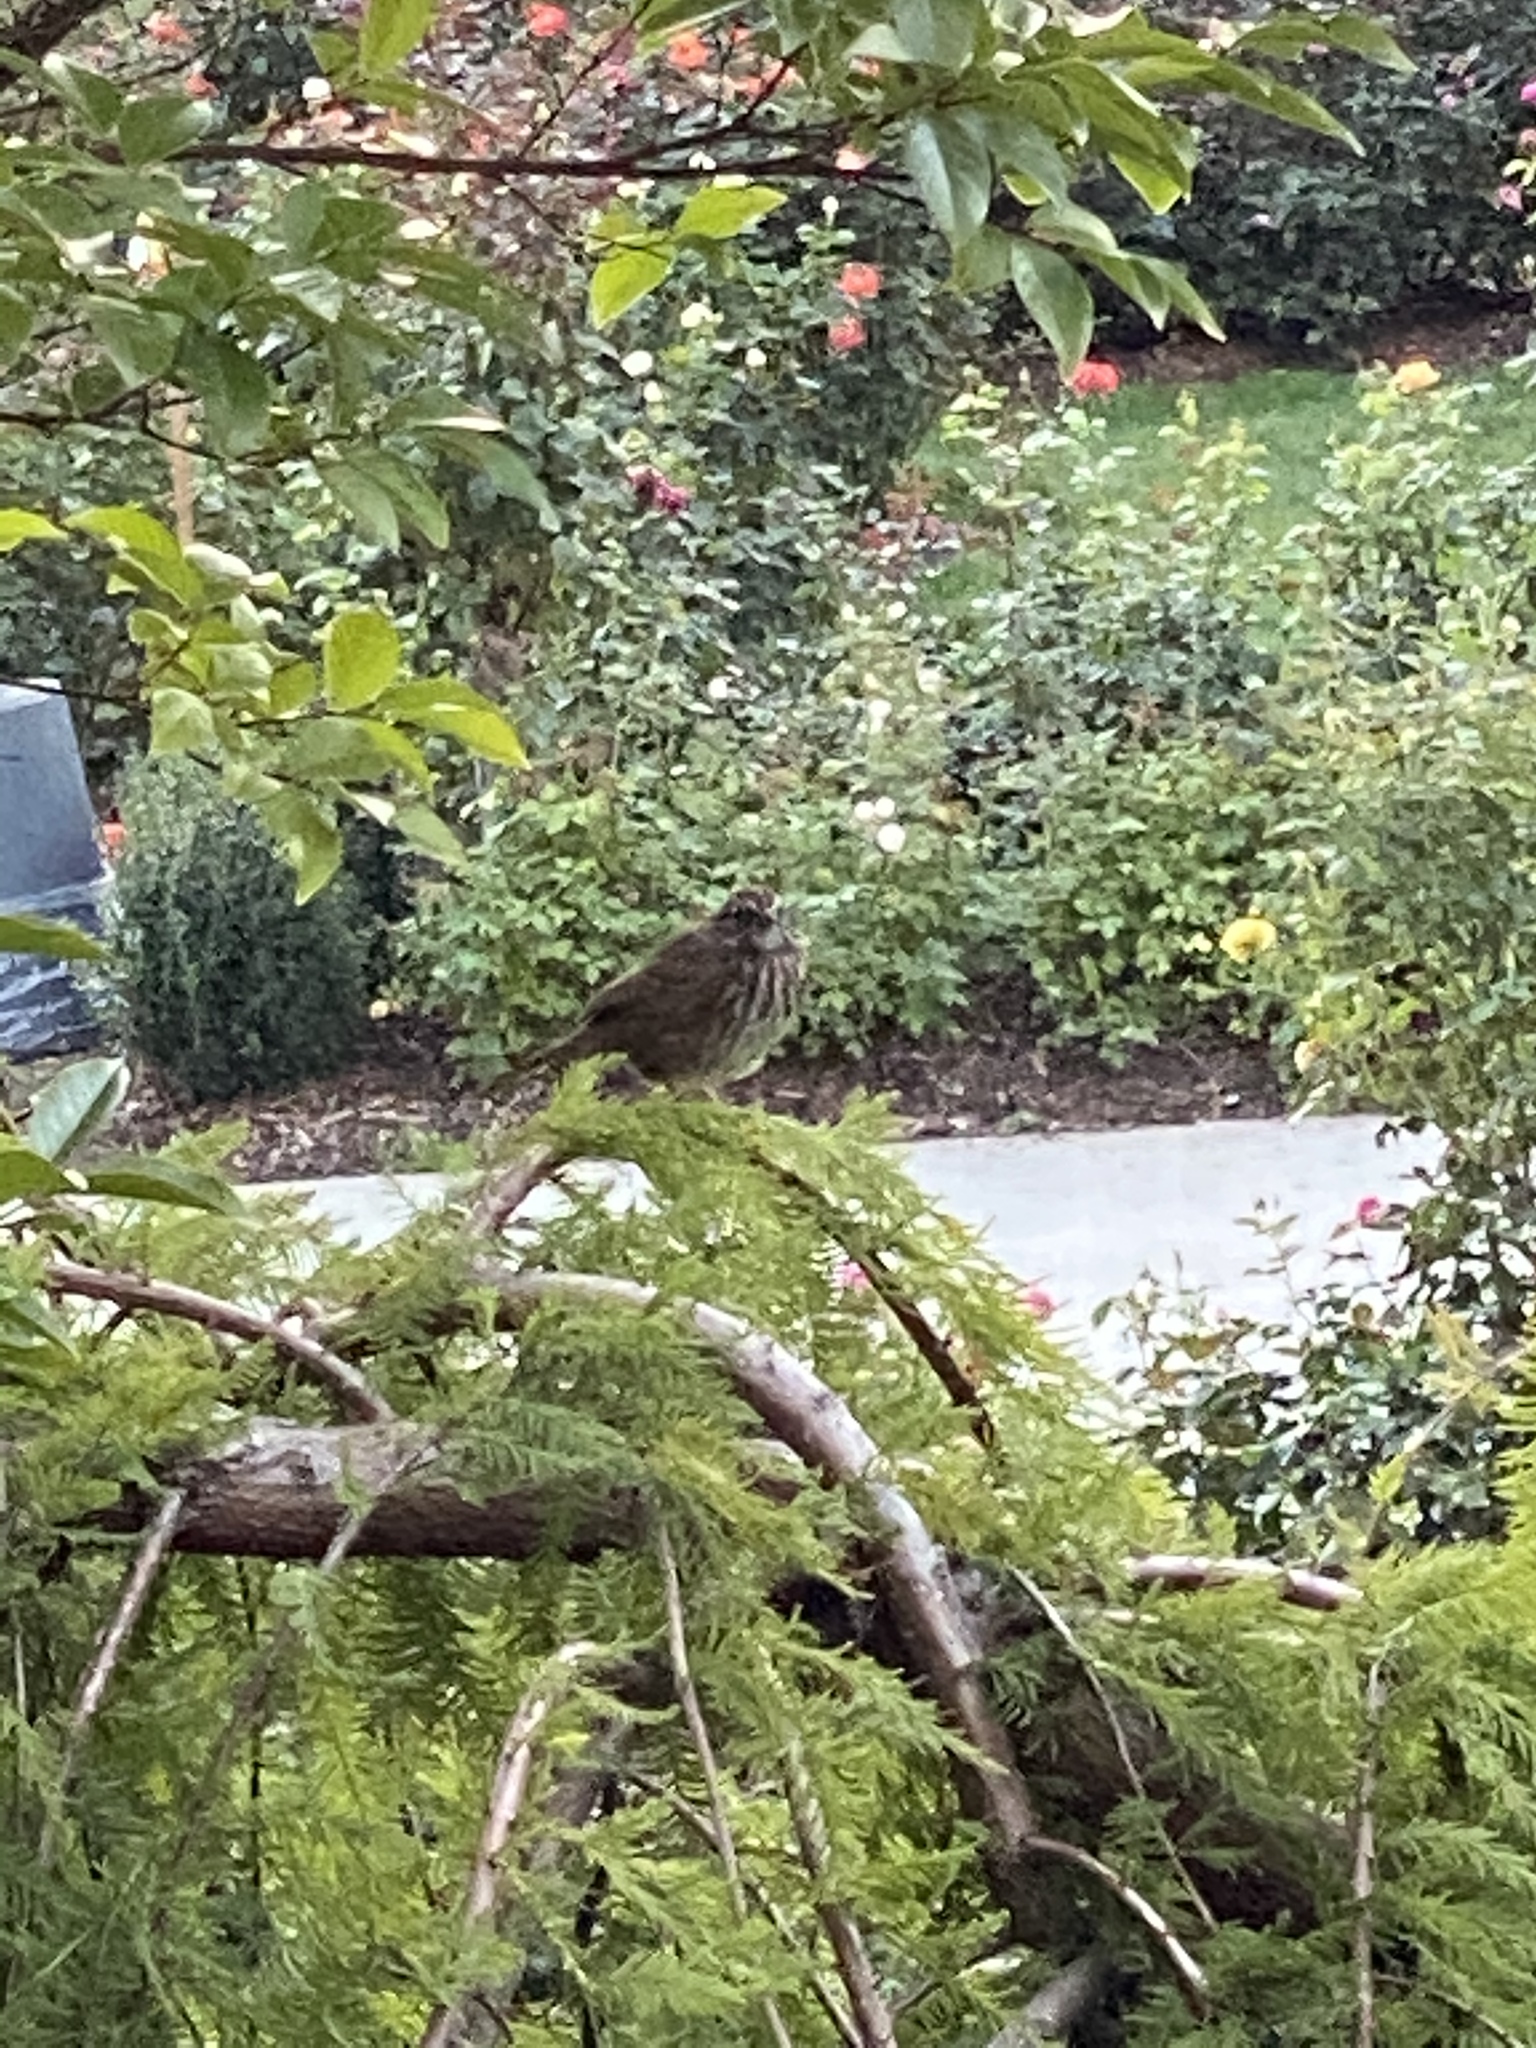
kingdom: Animalia
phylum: Chordata
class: Aves
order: Passeriformes
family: Passerellidae
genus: Melospiza
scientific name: Melospiza melodia
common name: Song sparrow
